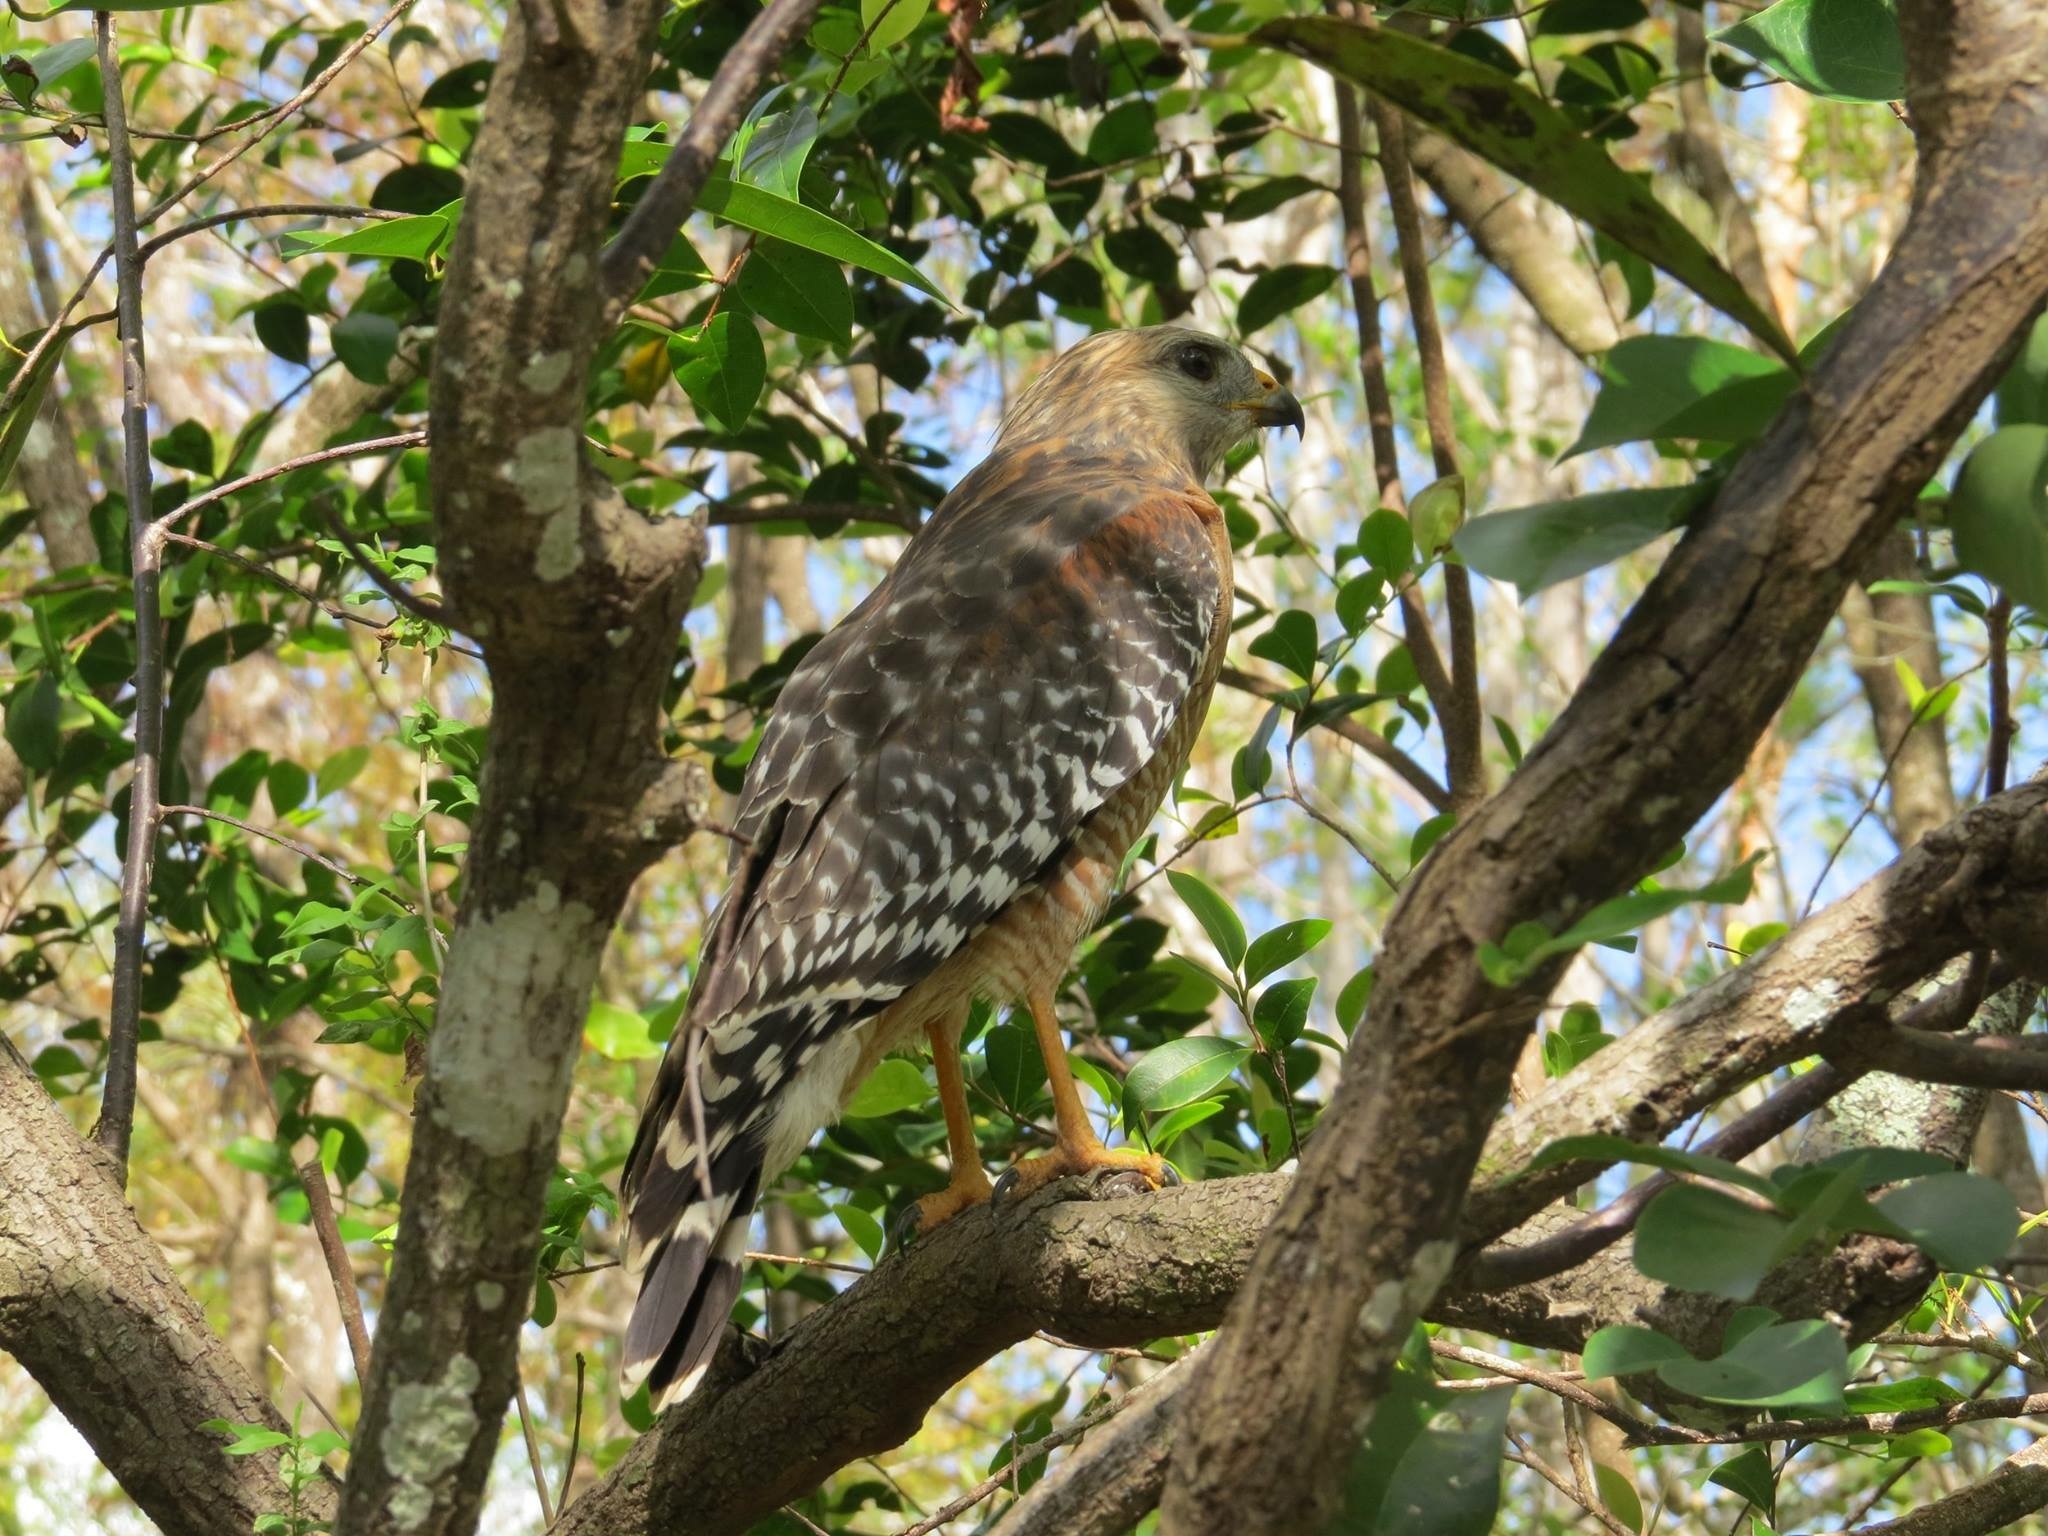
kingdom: Animalia
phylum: Chordata
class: Aves
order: Accipitriformes
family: Accipitridae
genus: Buteo
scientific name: Buteo lineatus
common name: Red-shouldered hawk
